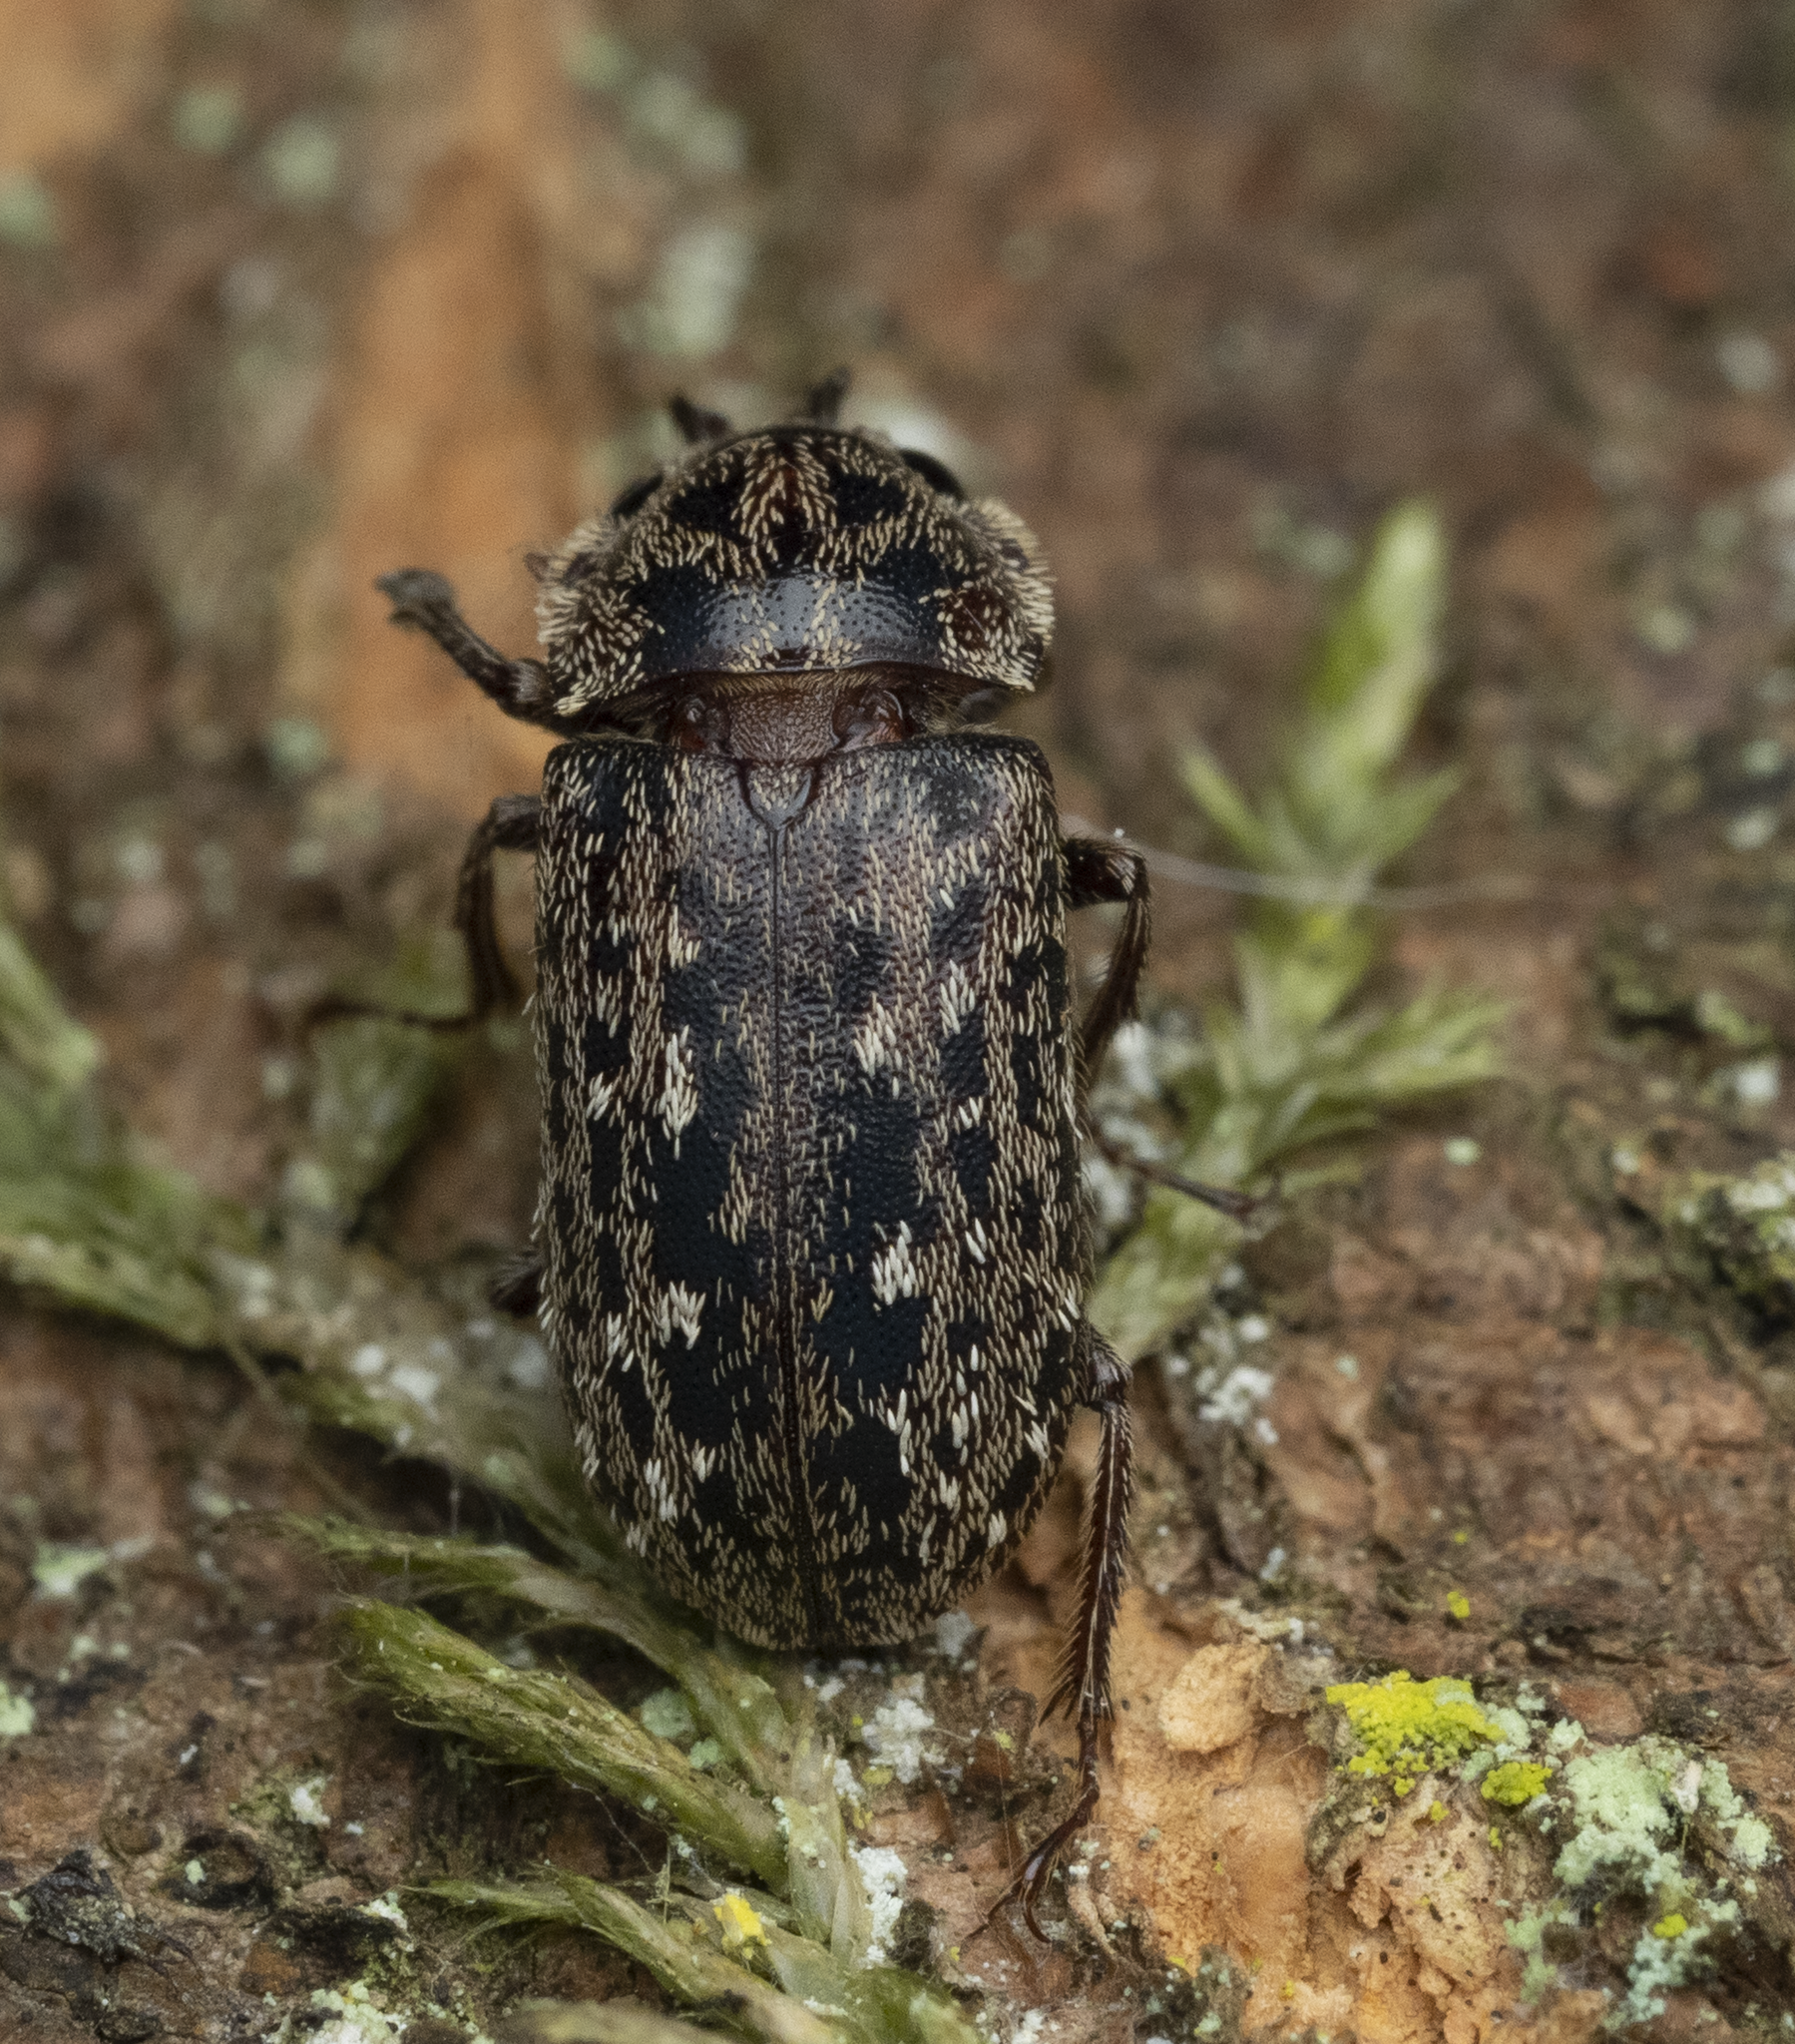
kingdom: Animalia
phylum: Arthropoda
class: Insecta
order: Coleoptera
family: Lucanidae
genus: Mitophyllus
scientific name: Mitophyllus irroratus
